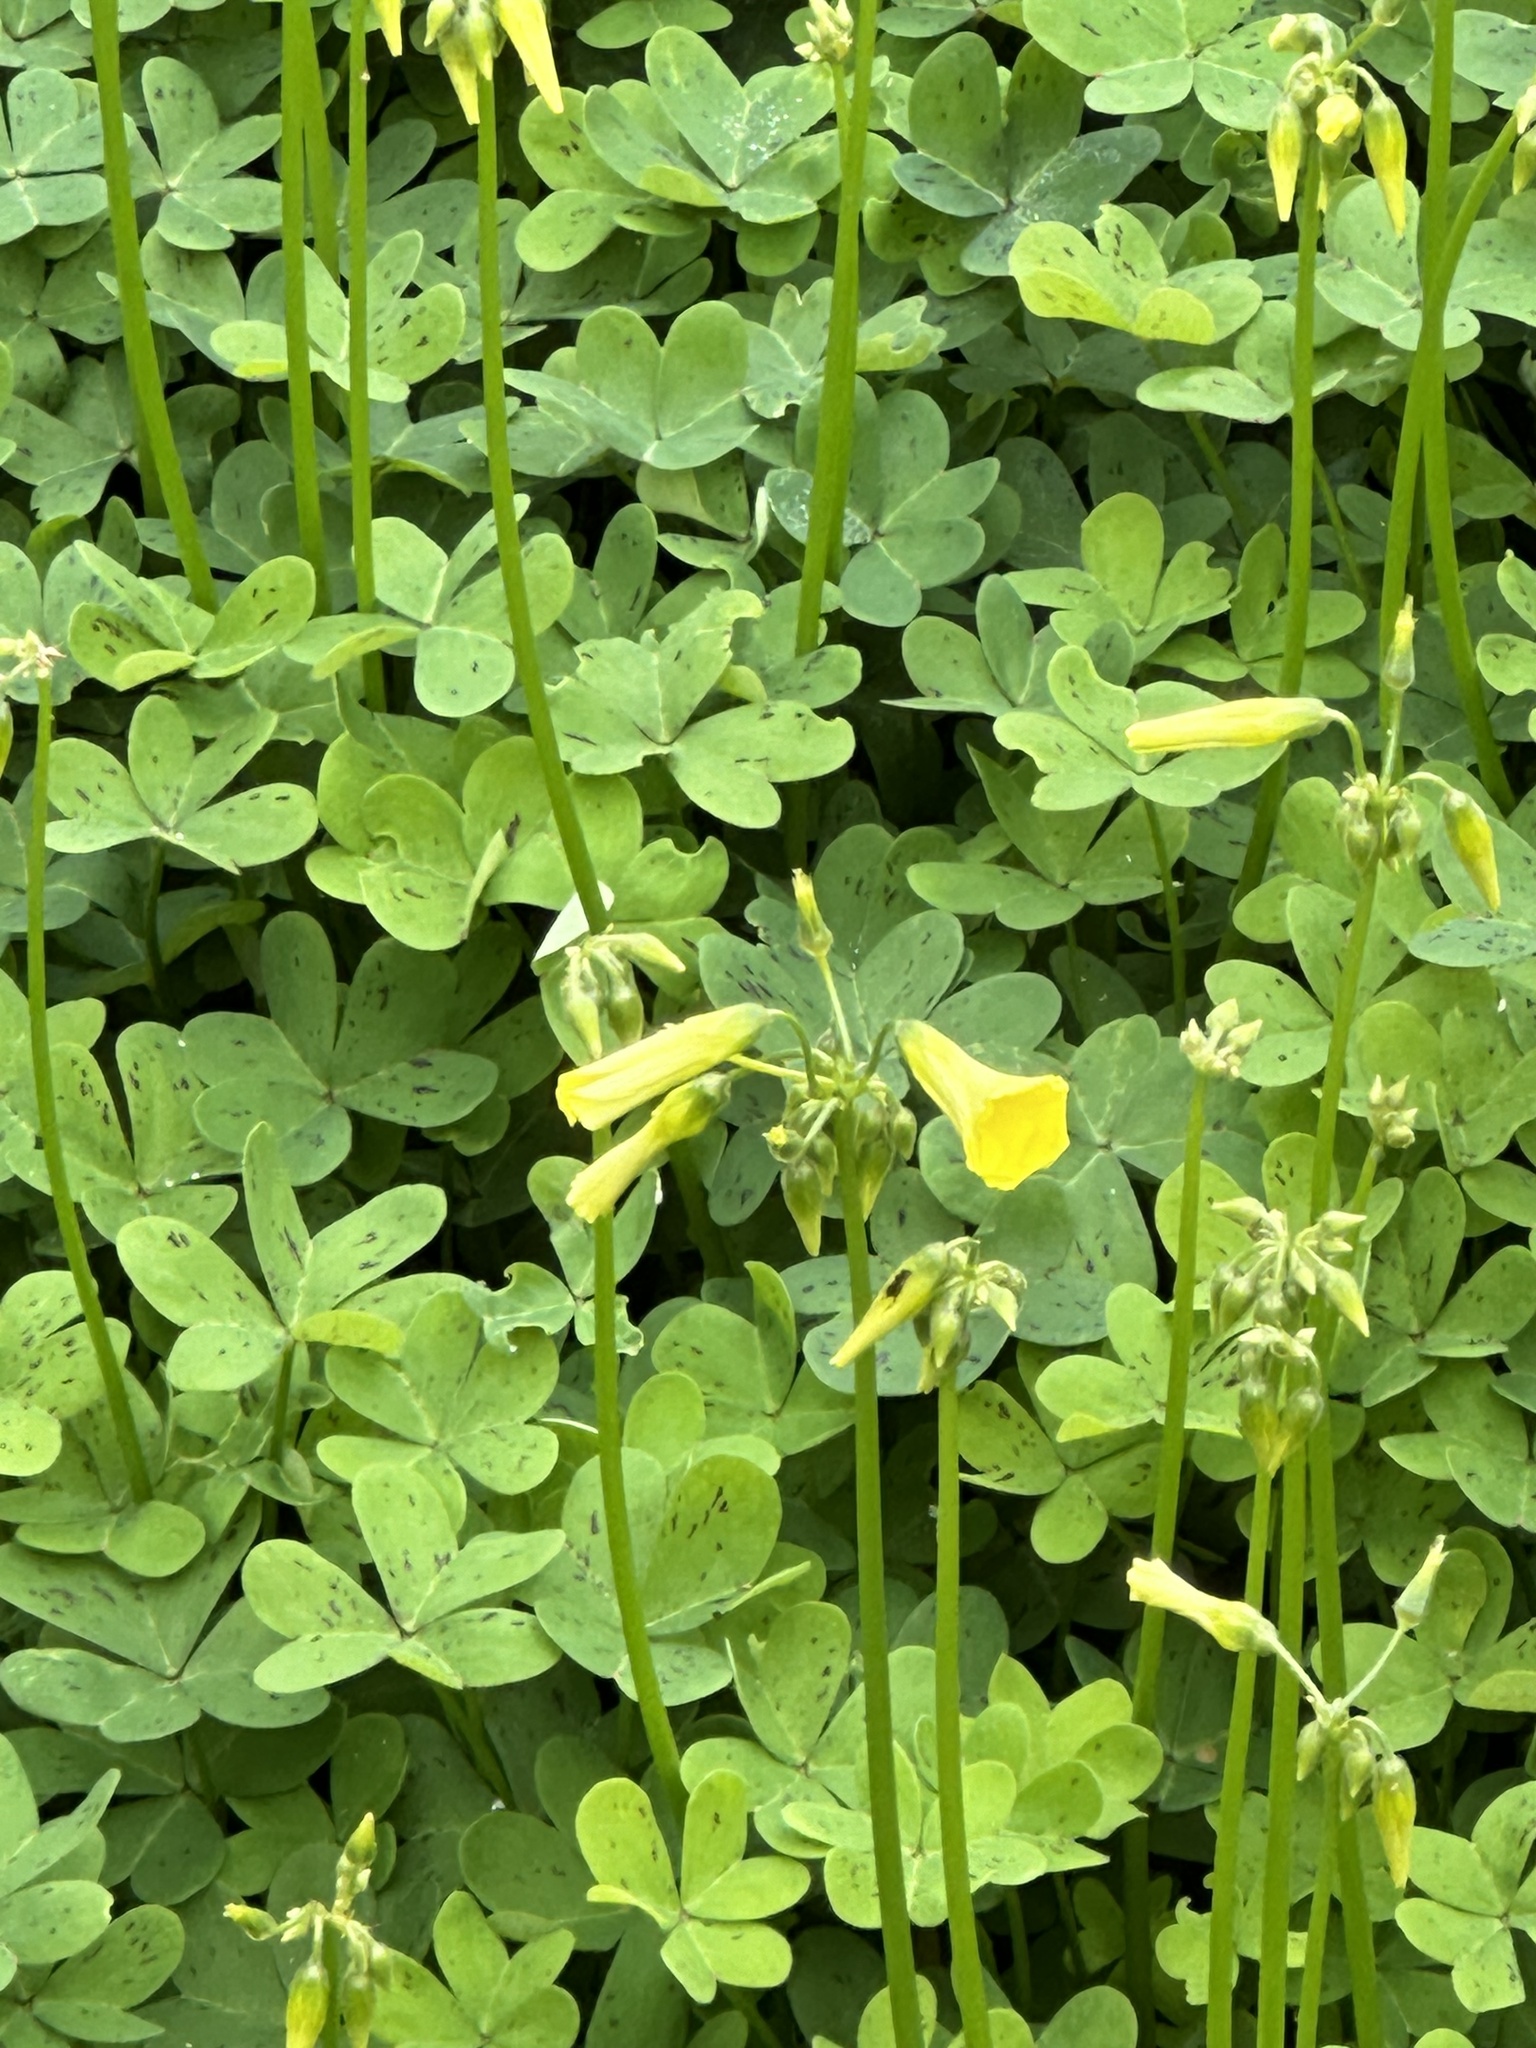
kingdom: Plantae
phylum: Tracheophyta
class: Magnoliopsida
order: Oxalidales
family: Oxalidaceae
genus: Oxalis
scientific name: Oxalis pes-caprae
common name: Bermuda-buttercup
